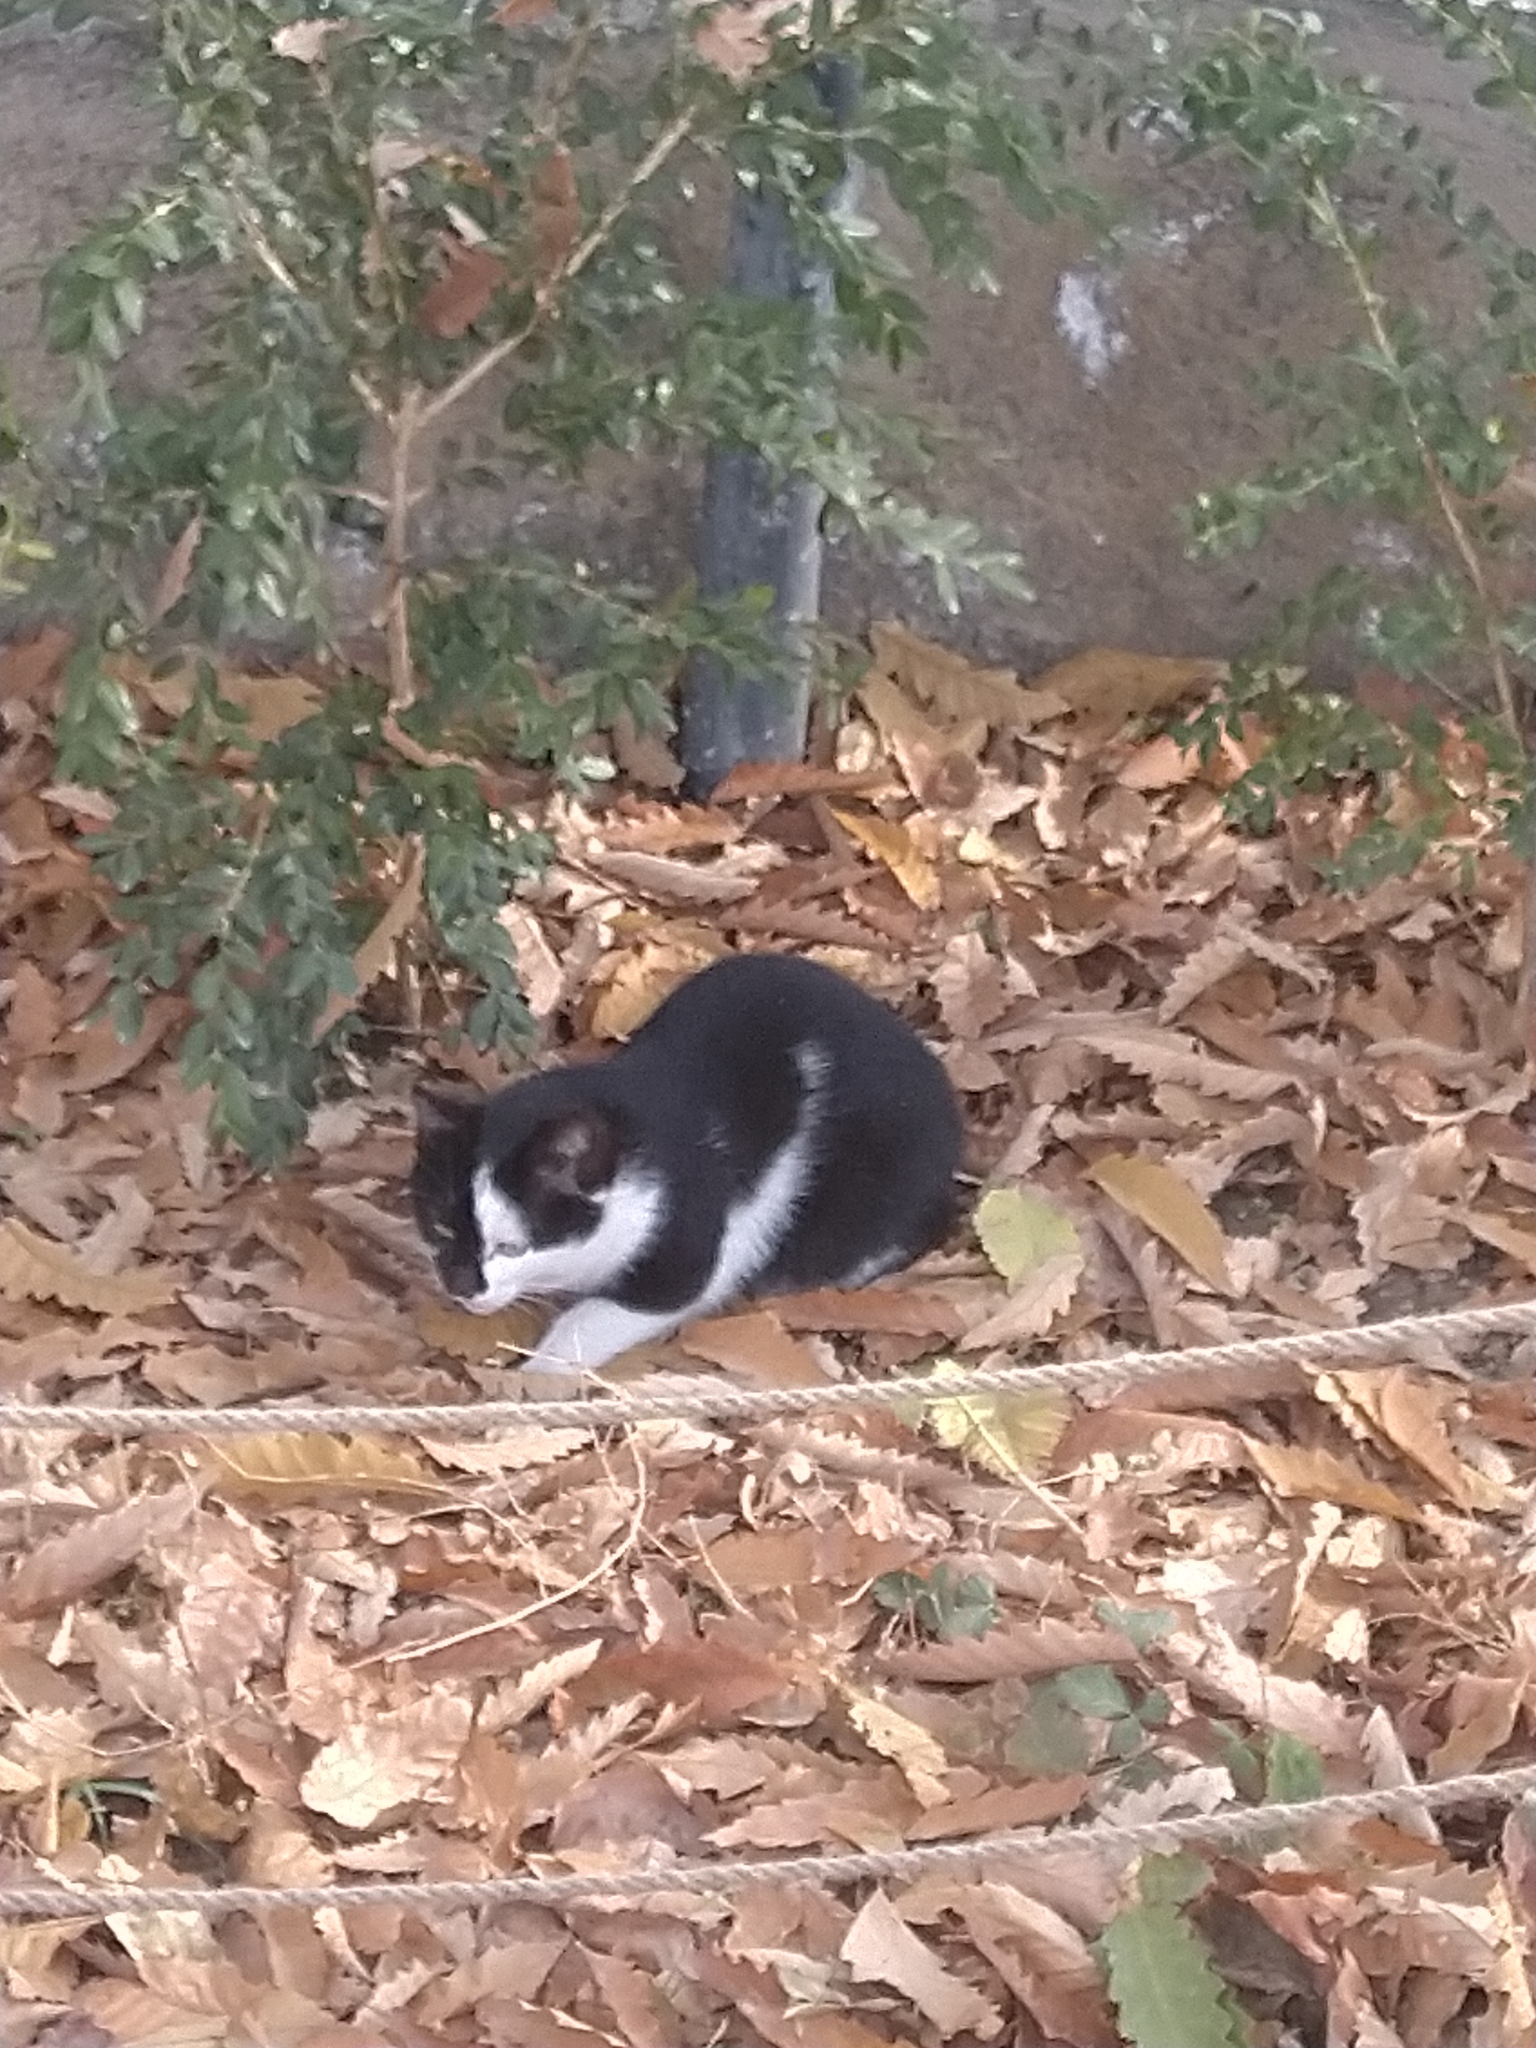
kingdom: Animalia
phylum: Chordata
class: Mammalia
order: Carnivora
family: Felidae
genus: Felis
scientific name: Felis catus
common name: Domestic cat
